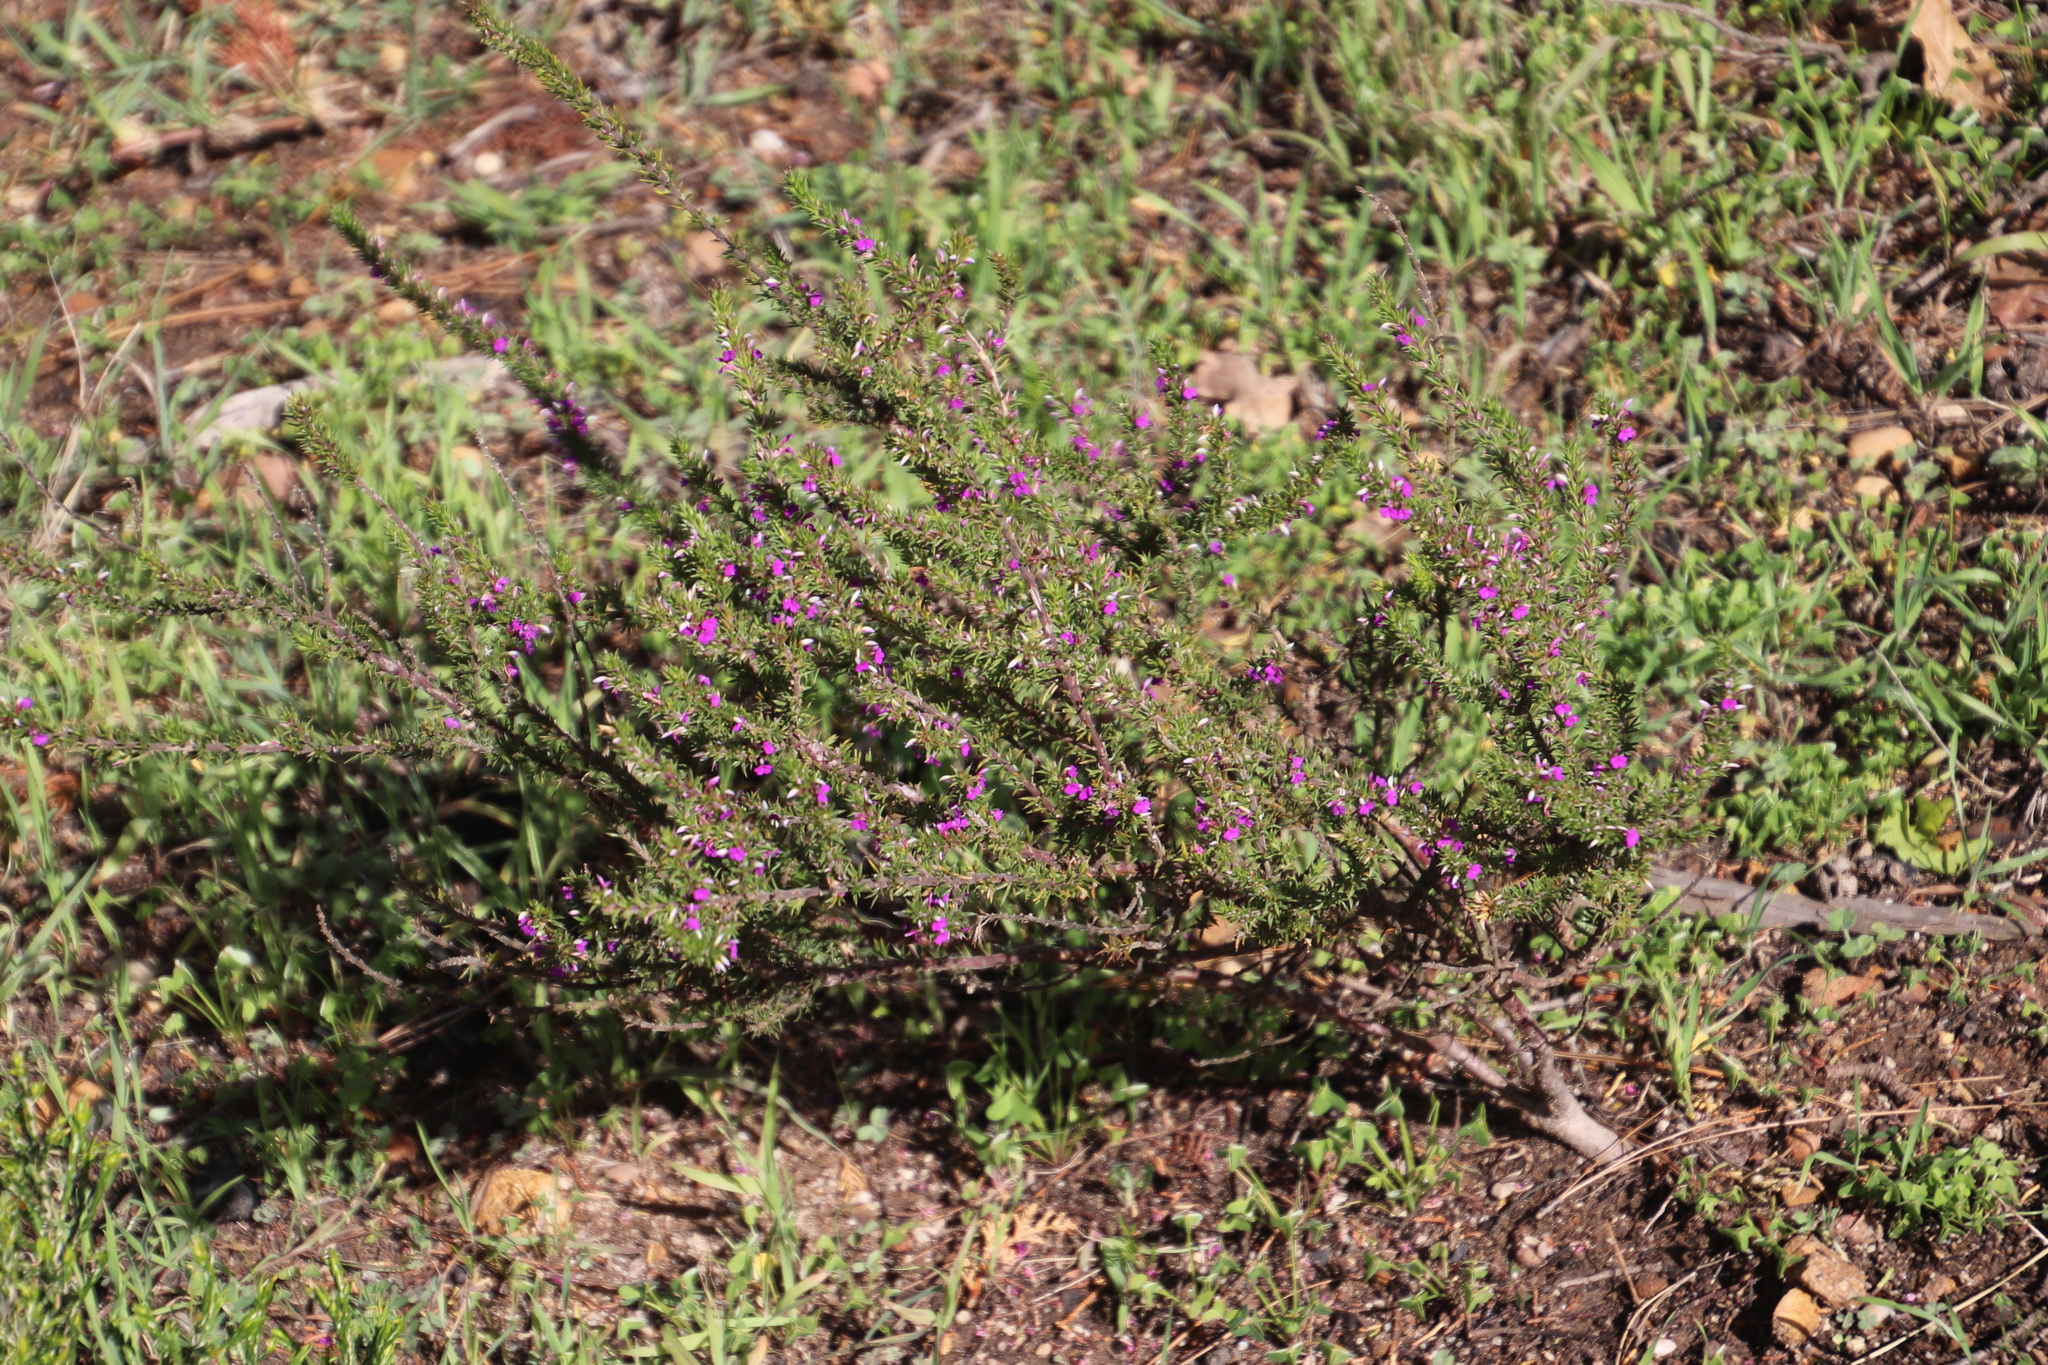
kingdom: Plantae
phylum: Tracheophyta
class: Magnoliopsida
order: Fabales
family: Polygalaceae
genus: Muraltia
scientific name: Muraltia heisteria
